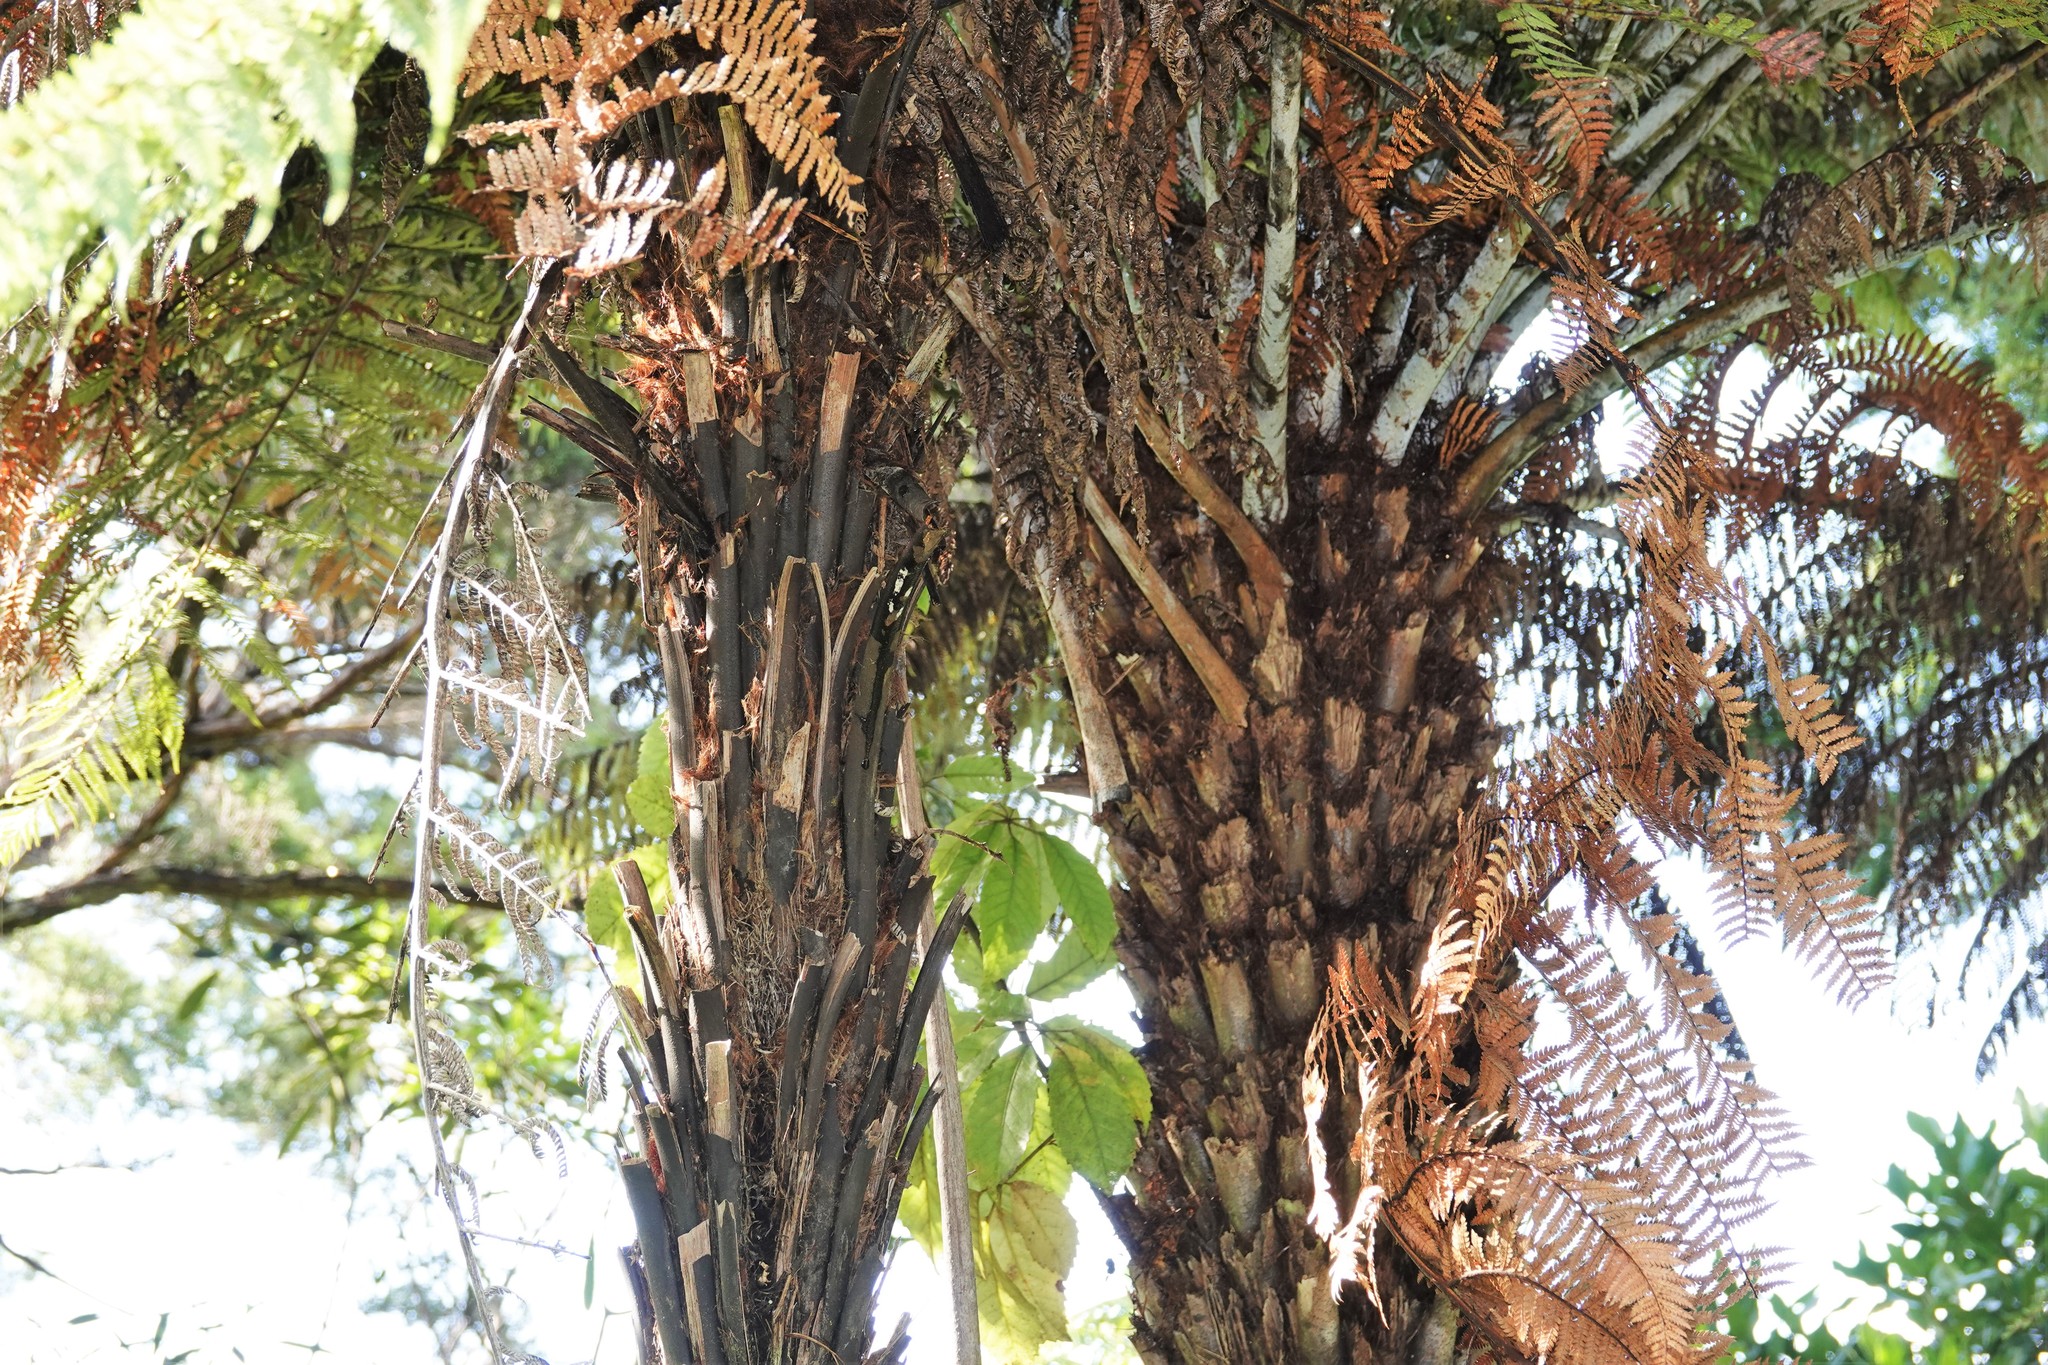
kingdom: Plantae
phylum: Tracheophyta
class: Polypodiopsida
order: Cyatheales
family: Dicksoniaceae
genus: Dicksonia
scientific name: Dicksonia squarrosa
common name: Hard treefern
